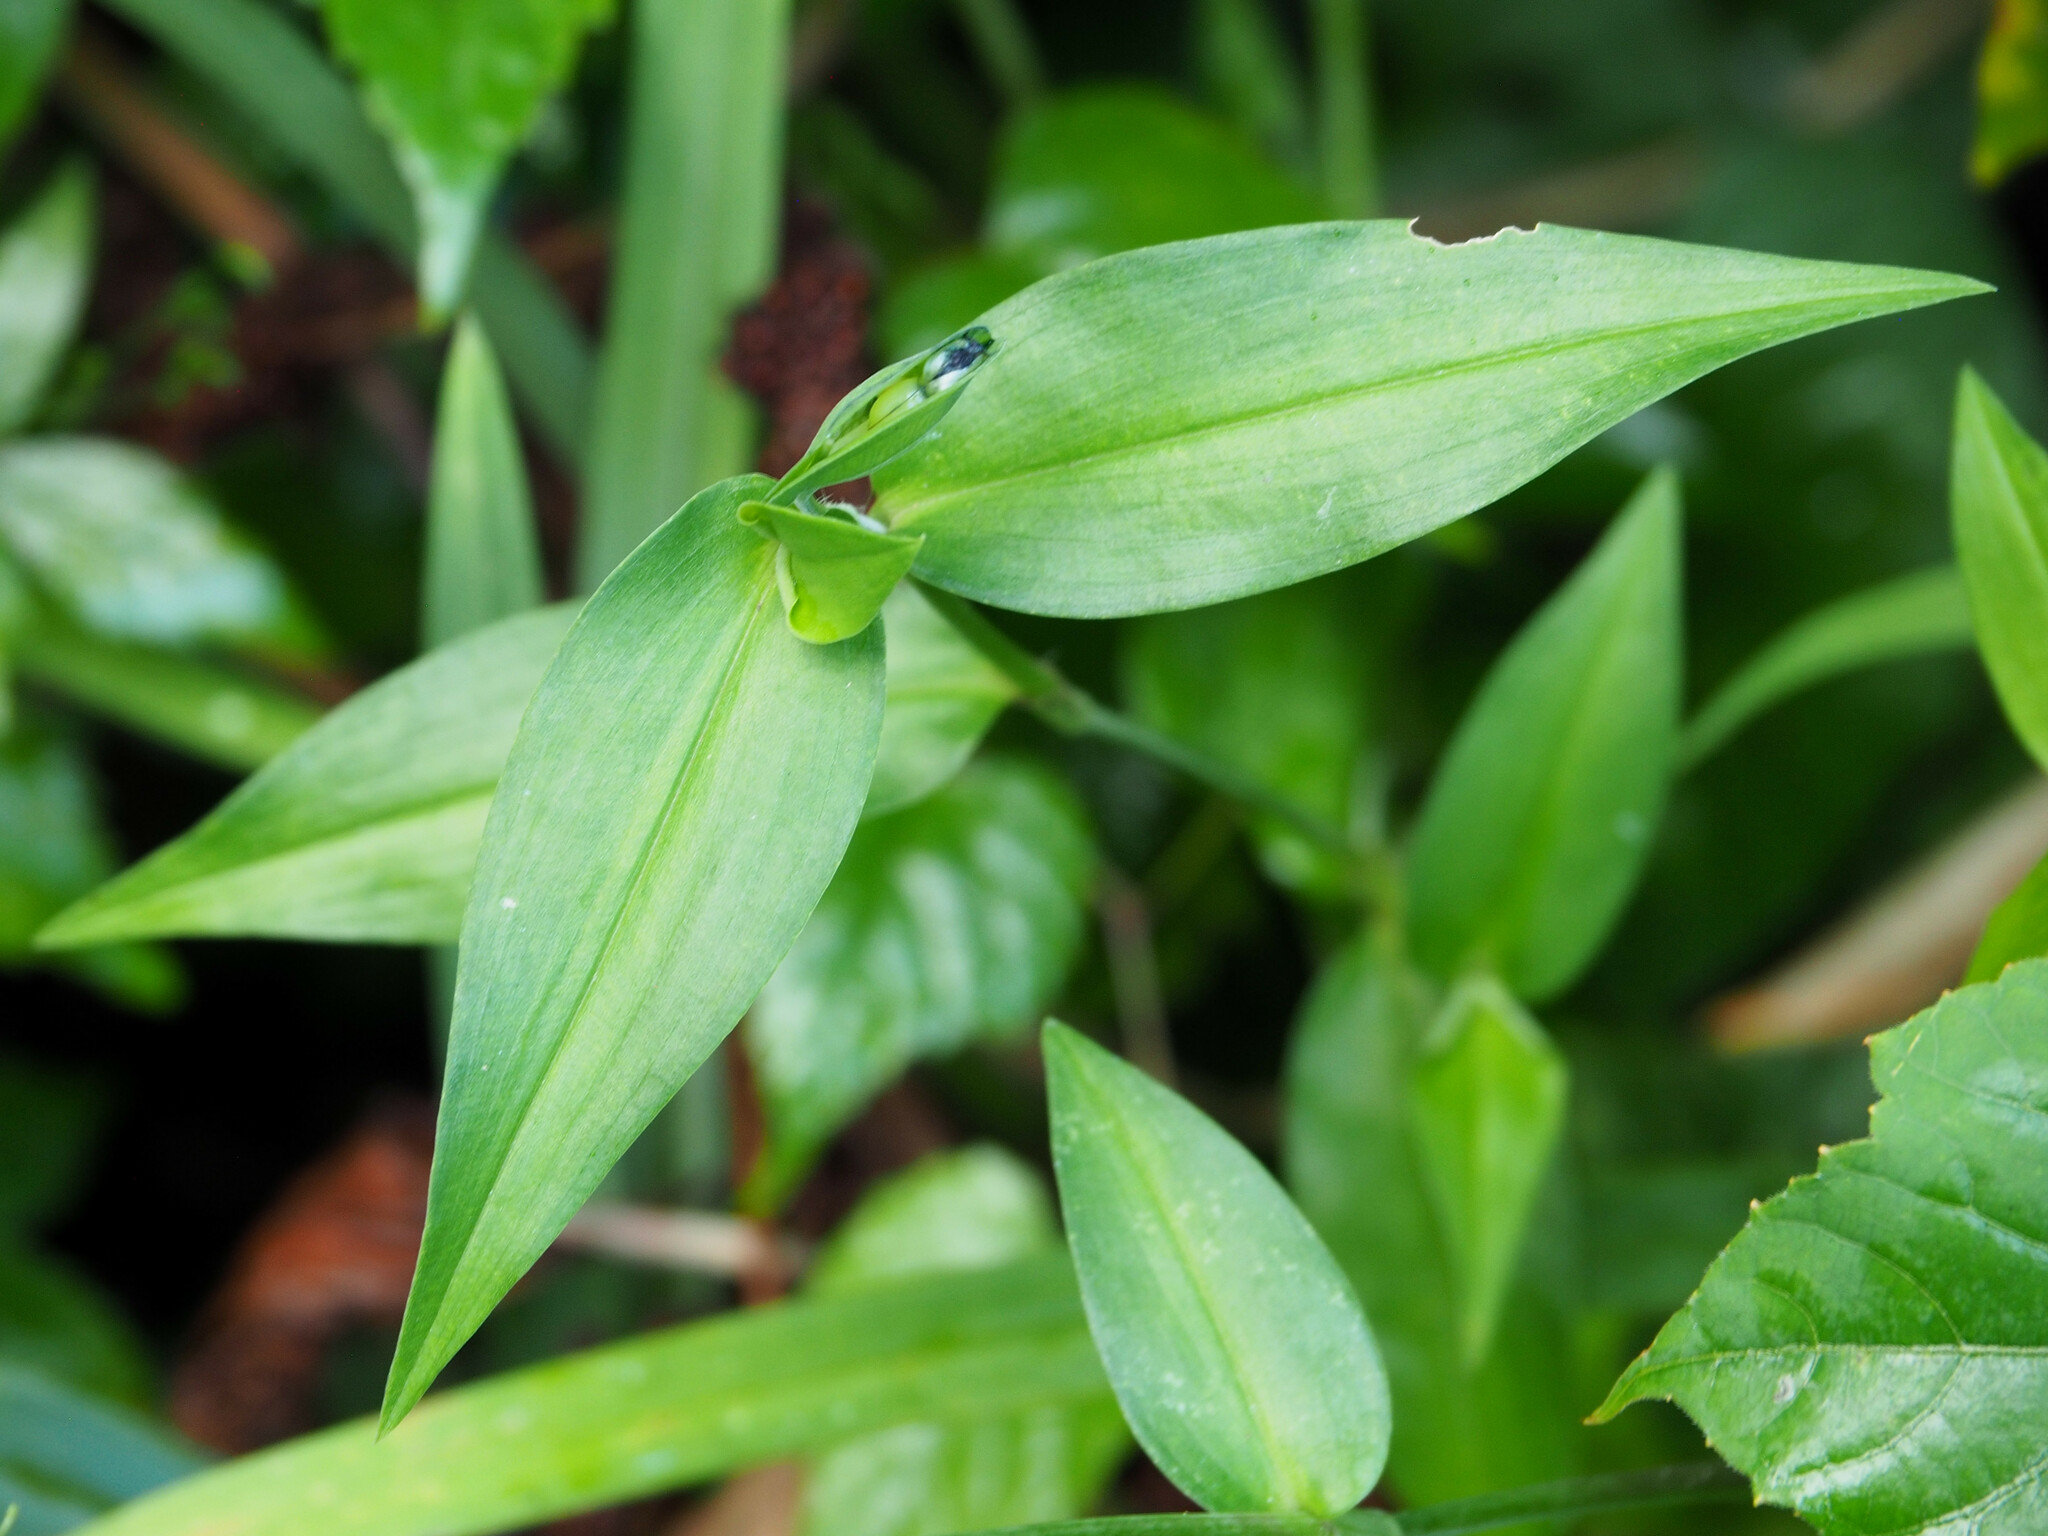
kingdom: Plantae
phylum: Tracheophyta
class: Liliopsida
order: Commelinales
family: Commelinaceae
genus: Commelina
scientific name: Commelina communis
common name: Asiatic dayflower
